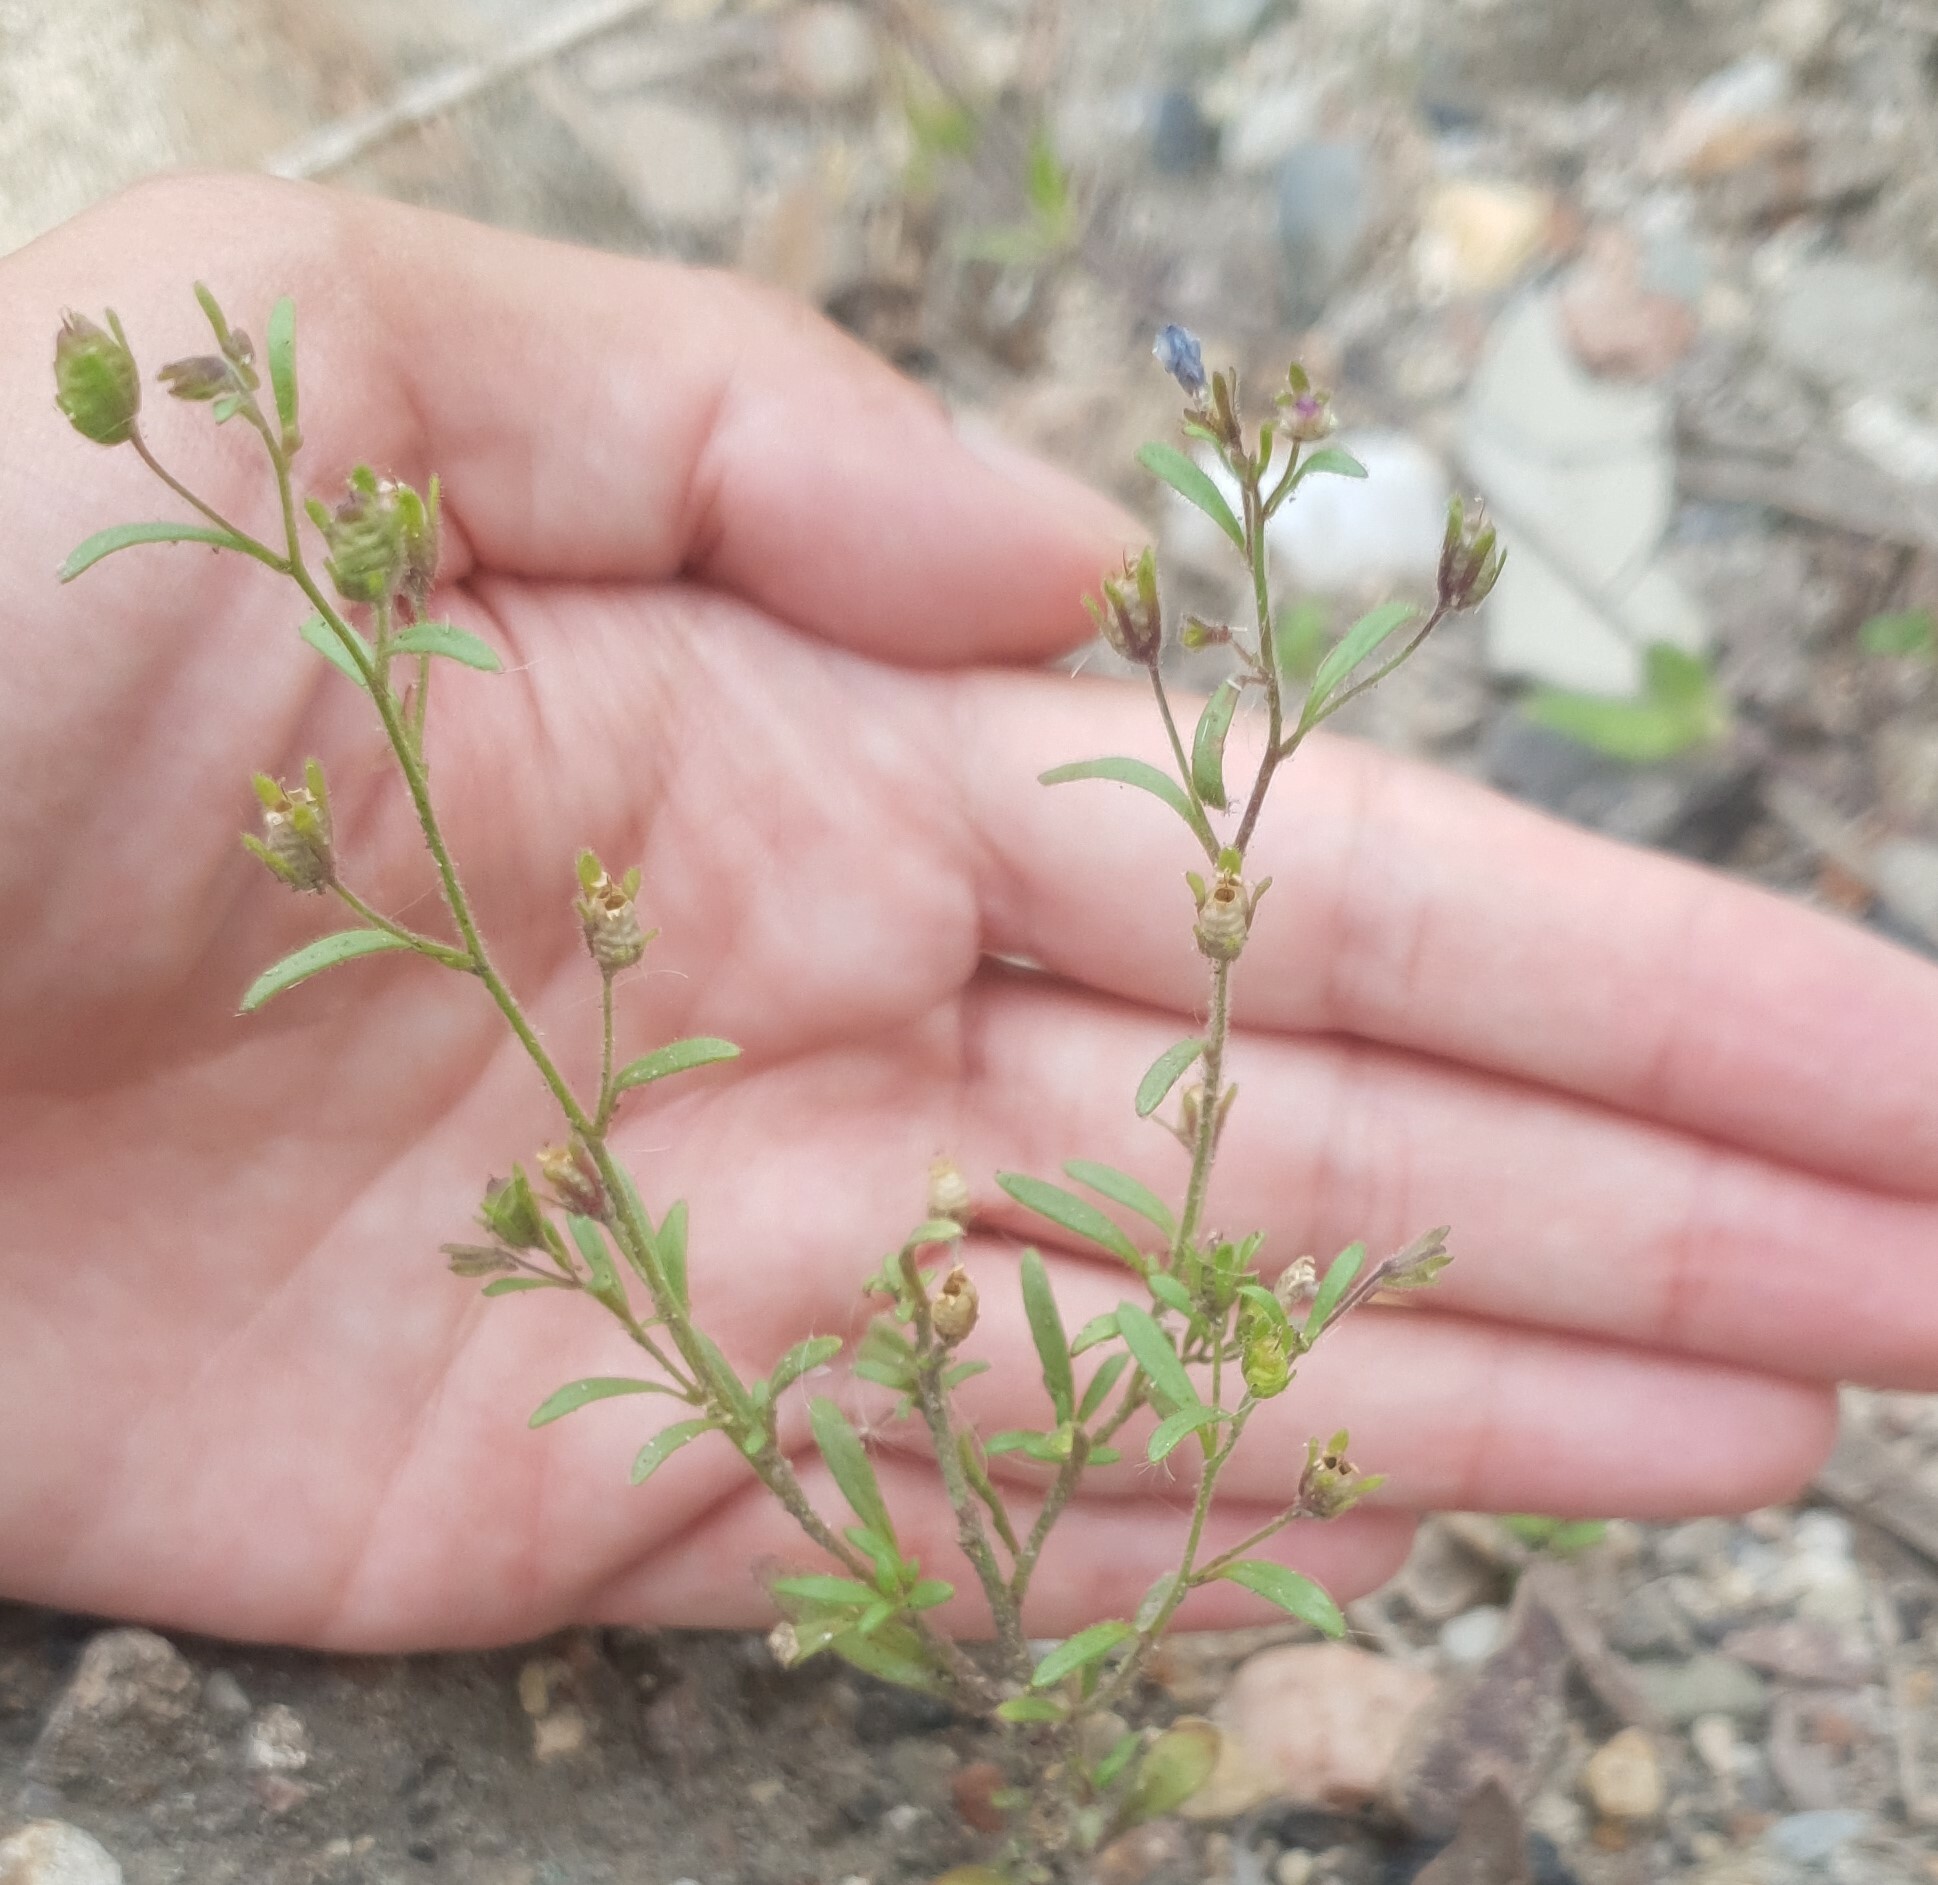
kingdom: Plantae
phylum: Tracheophyta
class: Magnoliopsida
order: Lamiales
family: Plantaginaceae
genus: Chaenorhinum
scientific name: Chaenorhinum minus
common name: Dwarf snapdragon
